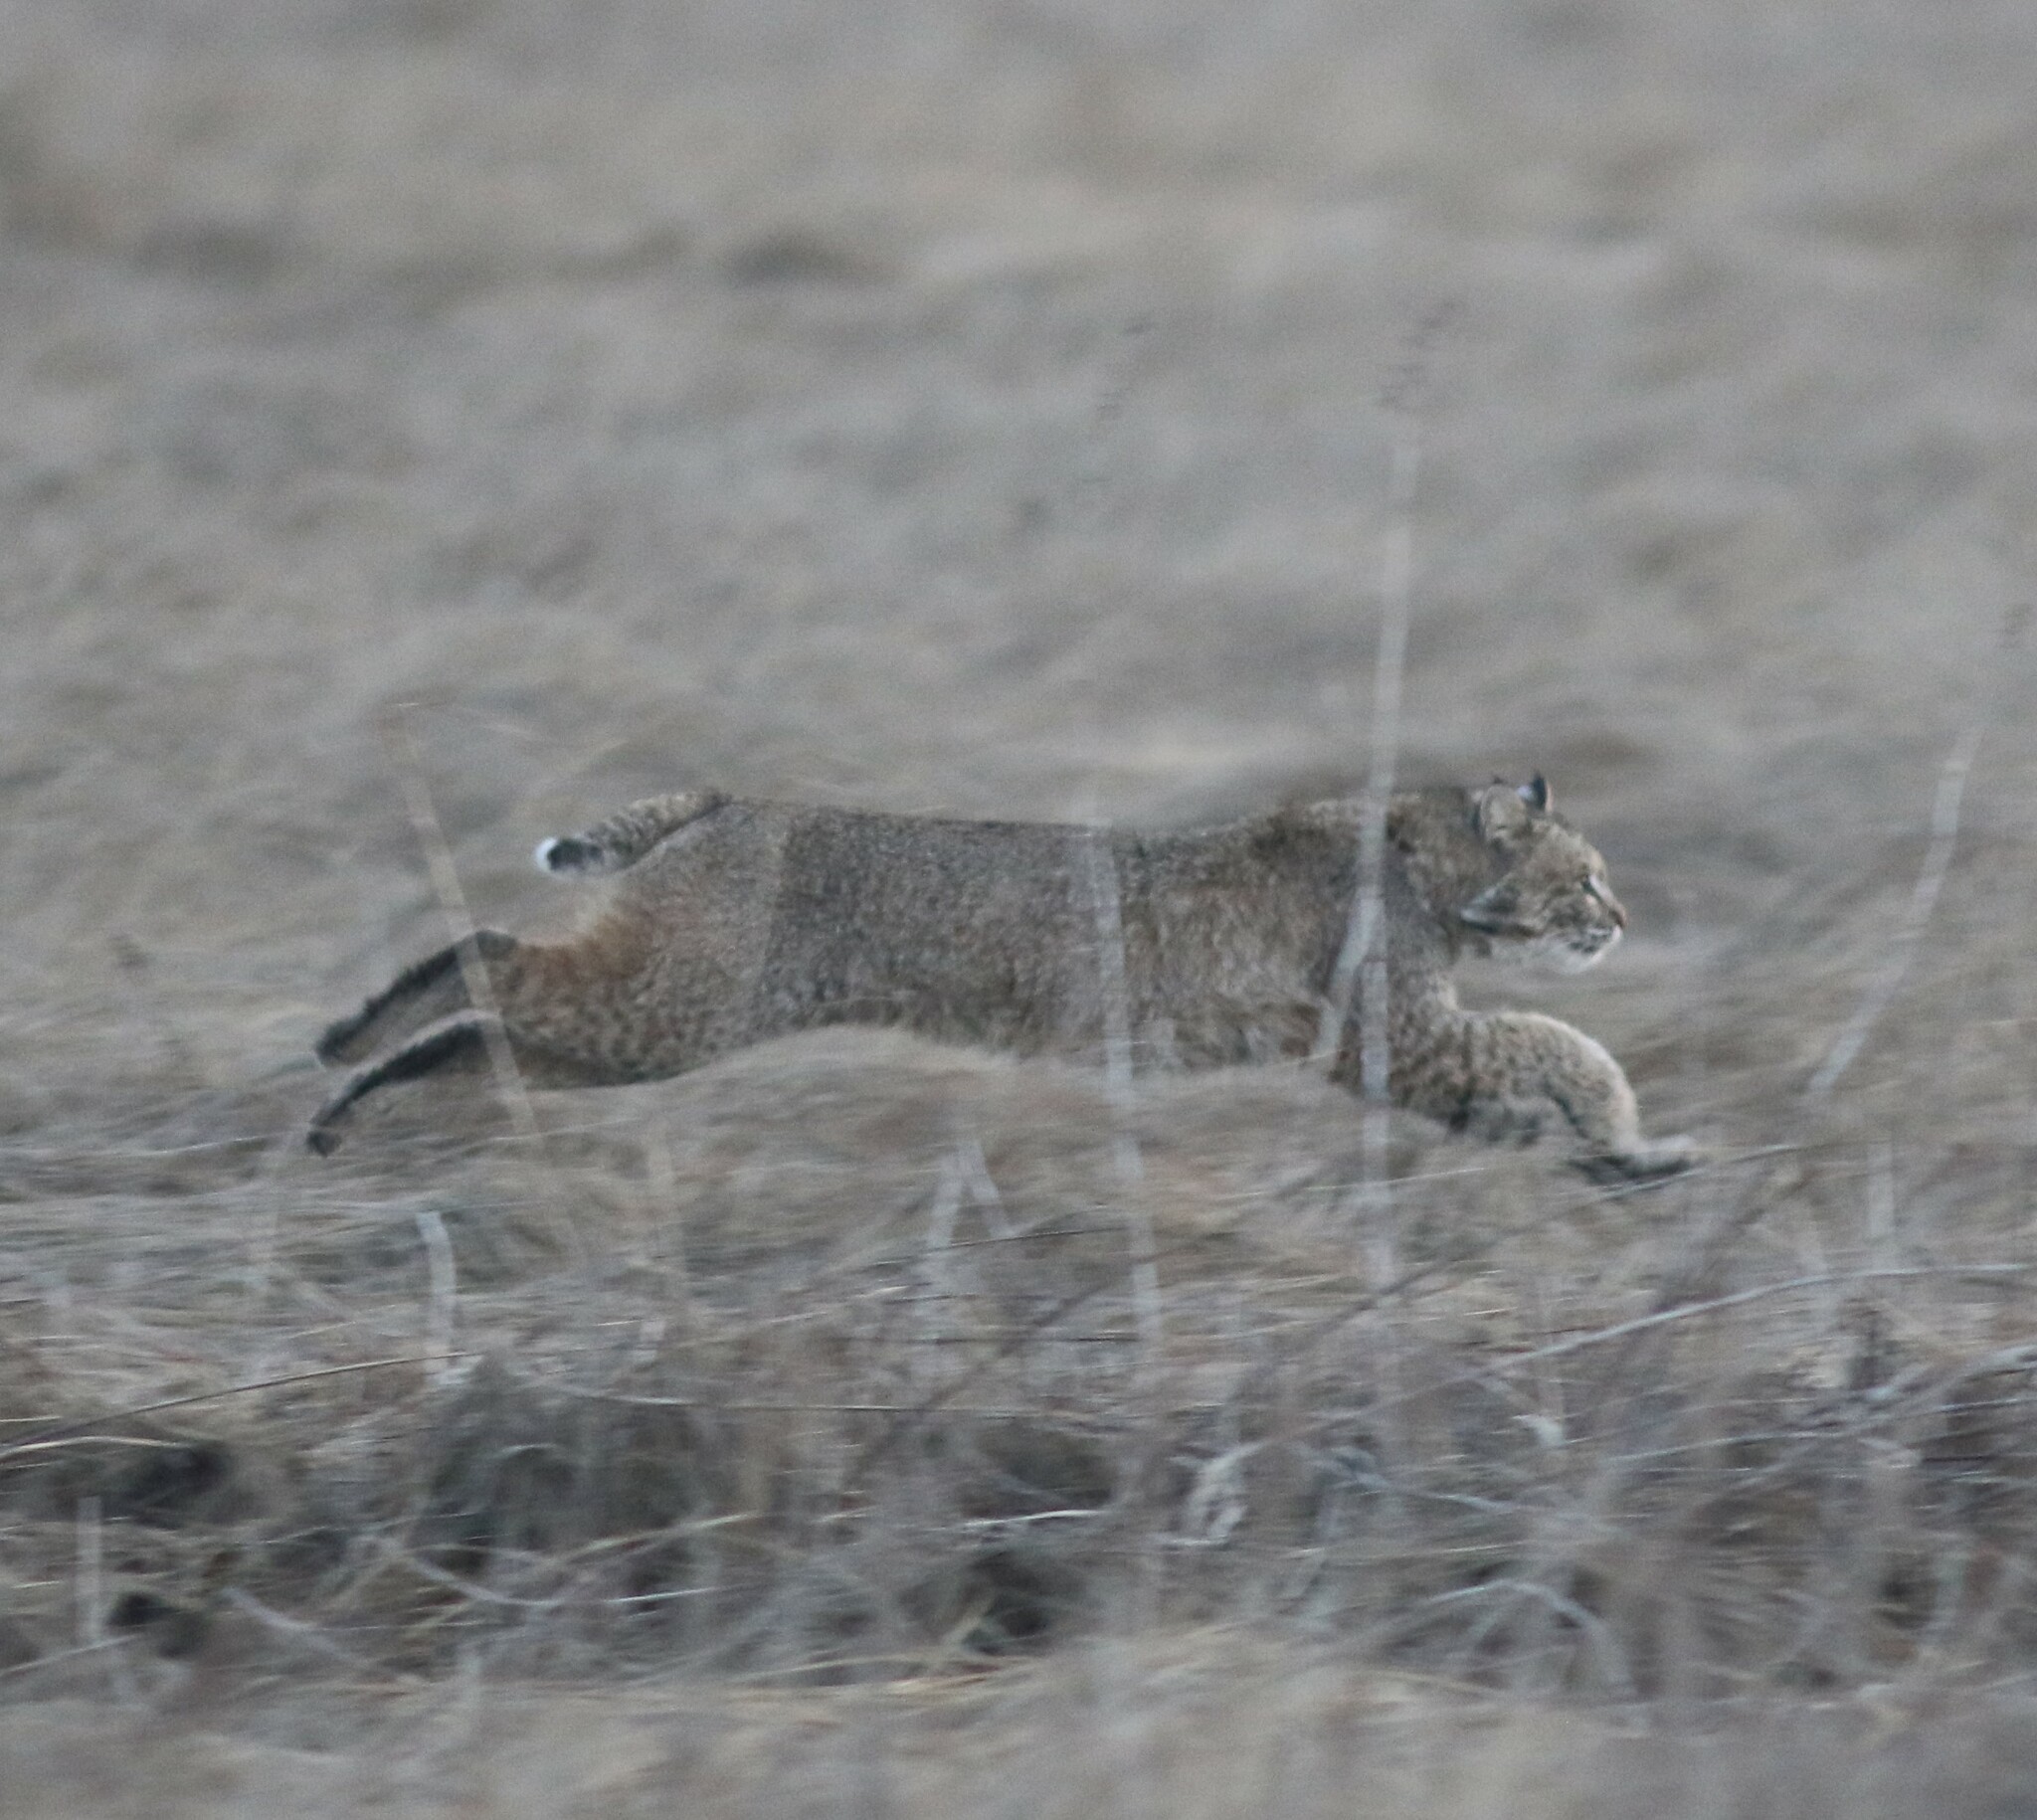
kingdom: Animalia
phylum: Chordata
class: Mammalia
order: Carnivora
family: Felidae
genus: Lynx
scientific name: Lynx rufus
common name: Bobcat
